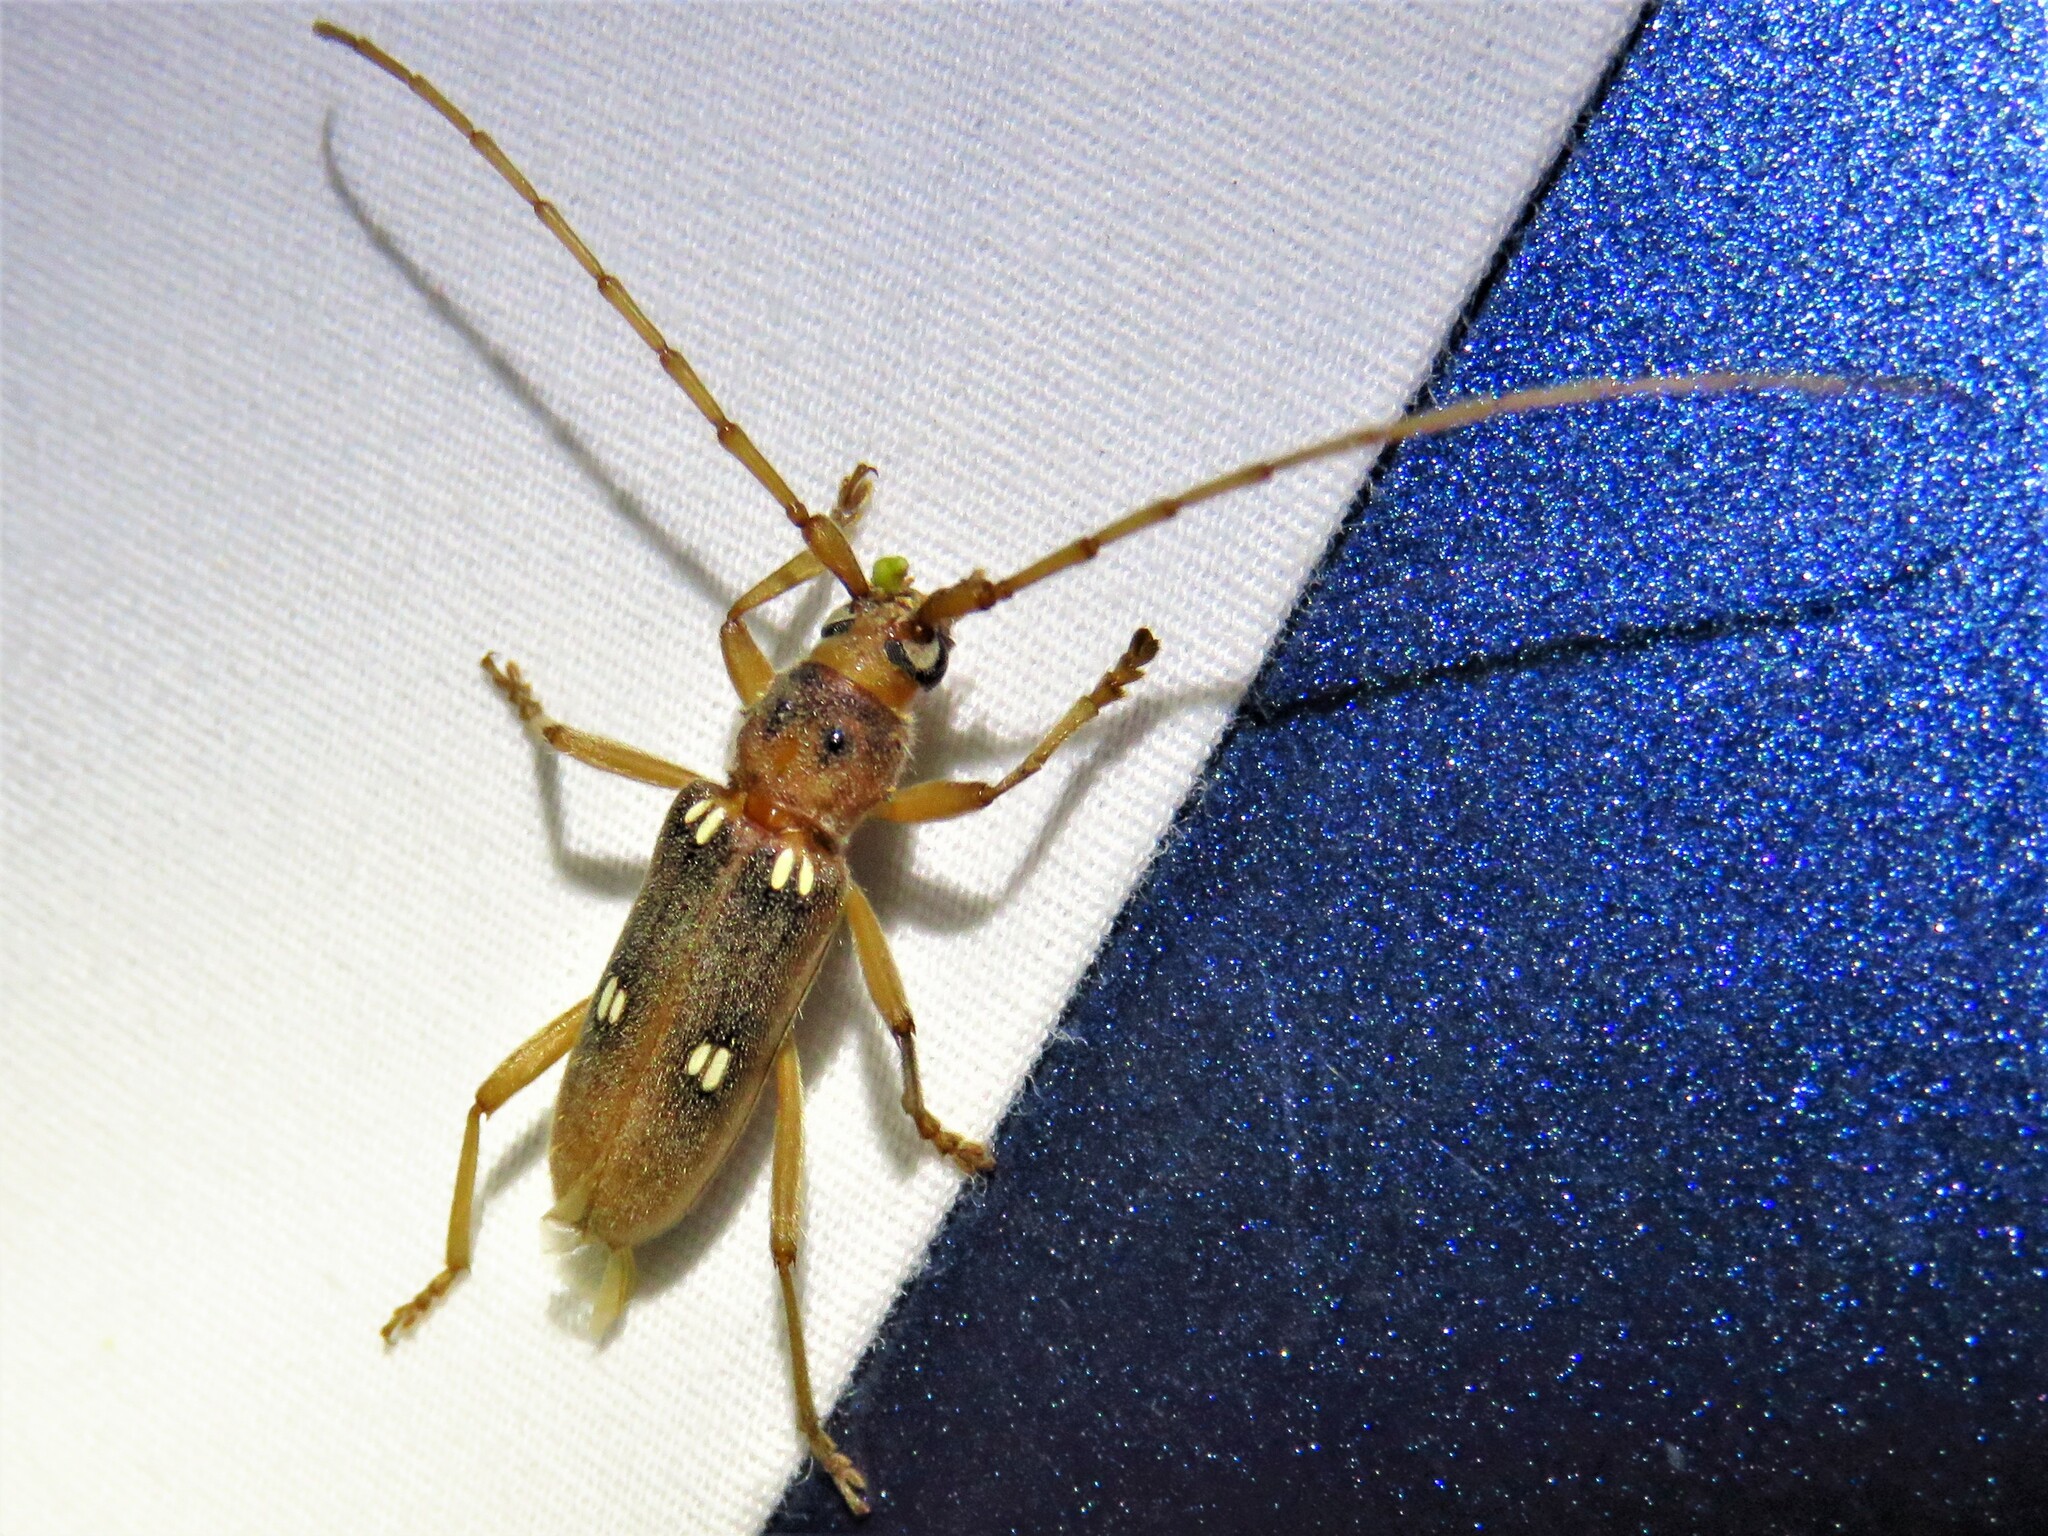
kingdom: Animalia
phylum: Arthropoda
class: Insecta
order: Coleoptera
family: Cerambycidae
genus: Eburia
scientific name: Eburia haldemani
